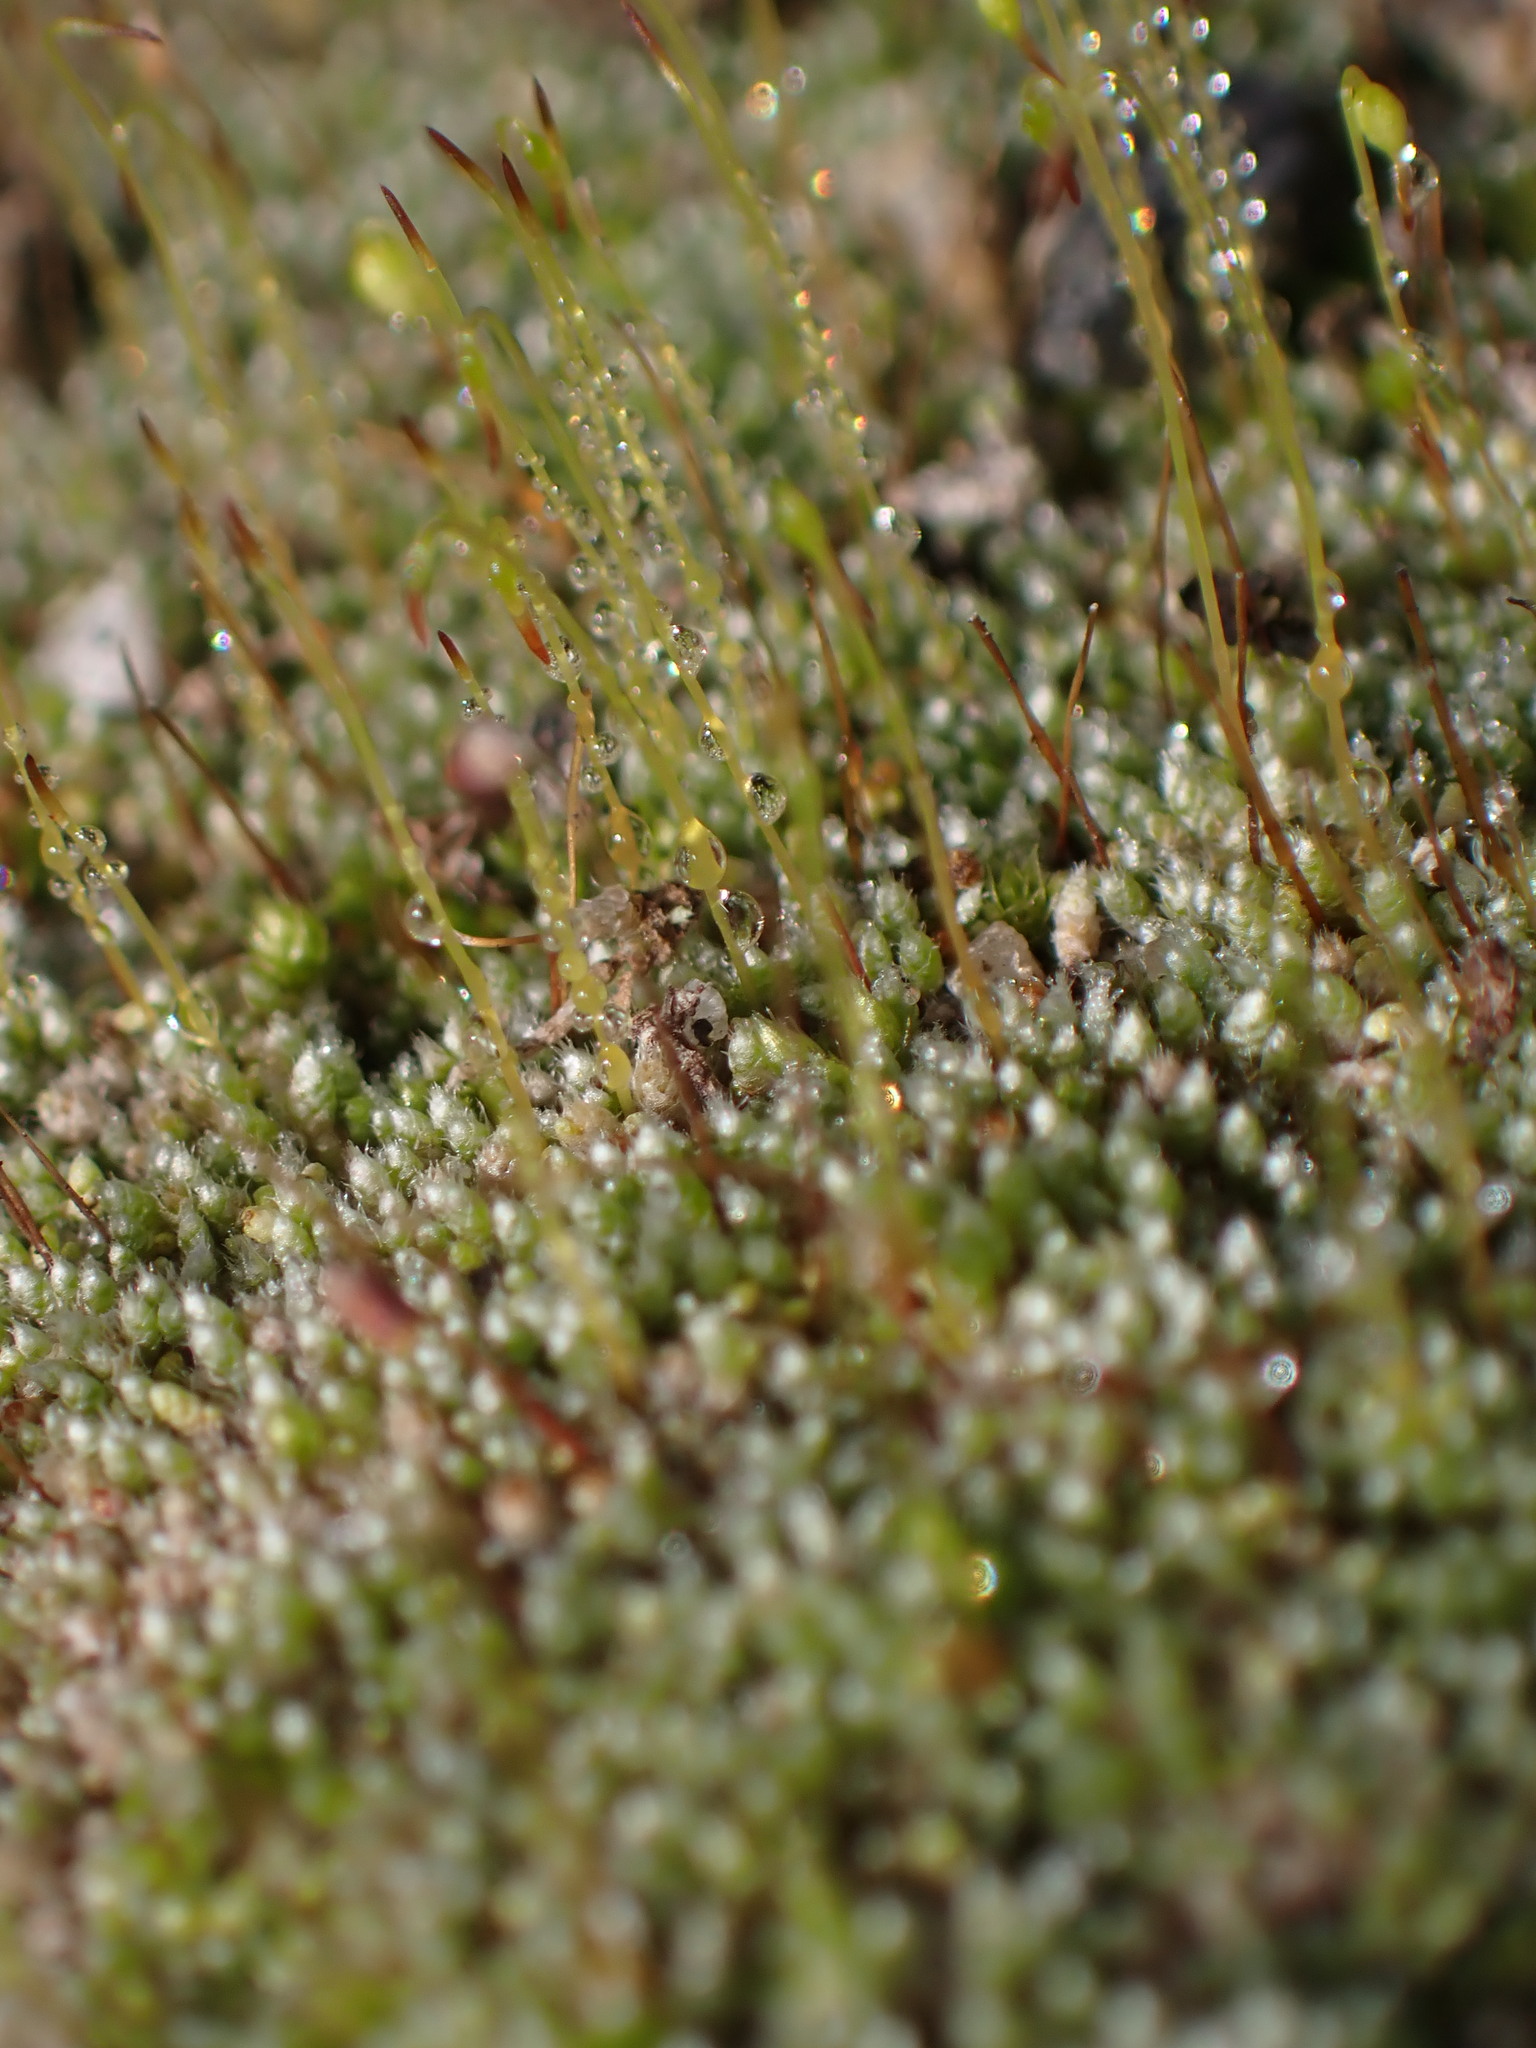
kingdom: Plantae
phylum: Bryophyta
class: Bryopsida
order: Bryales
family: Bryaceae
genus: Bryum
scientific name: Bryum argenteum
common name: Silver-moss
